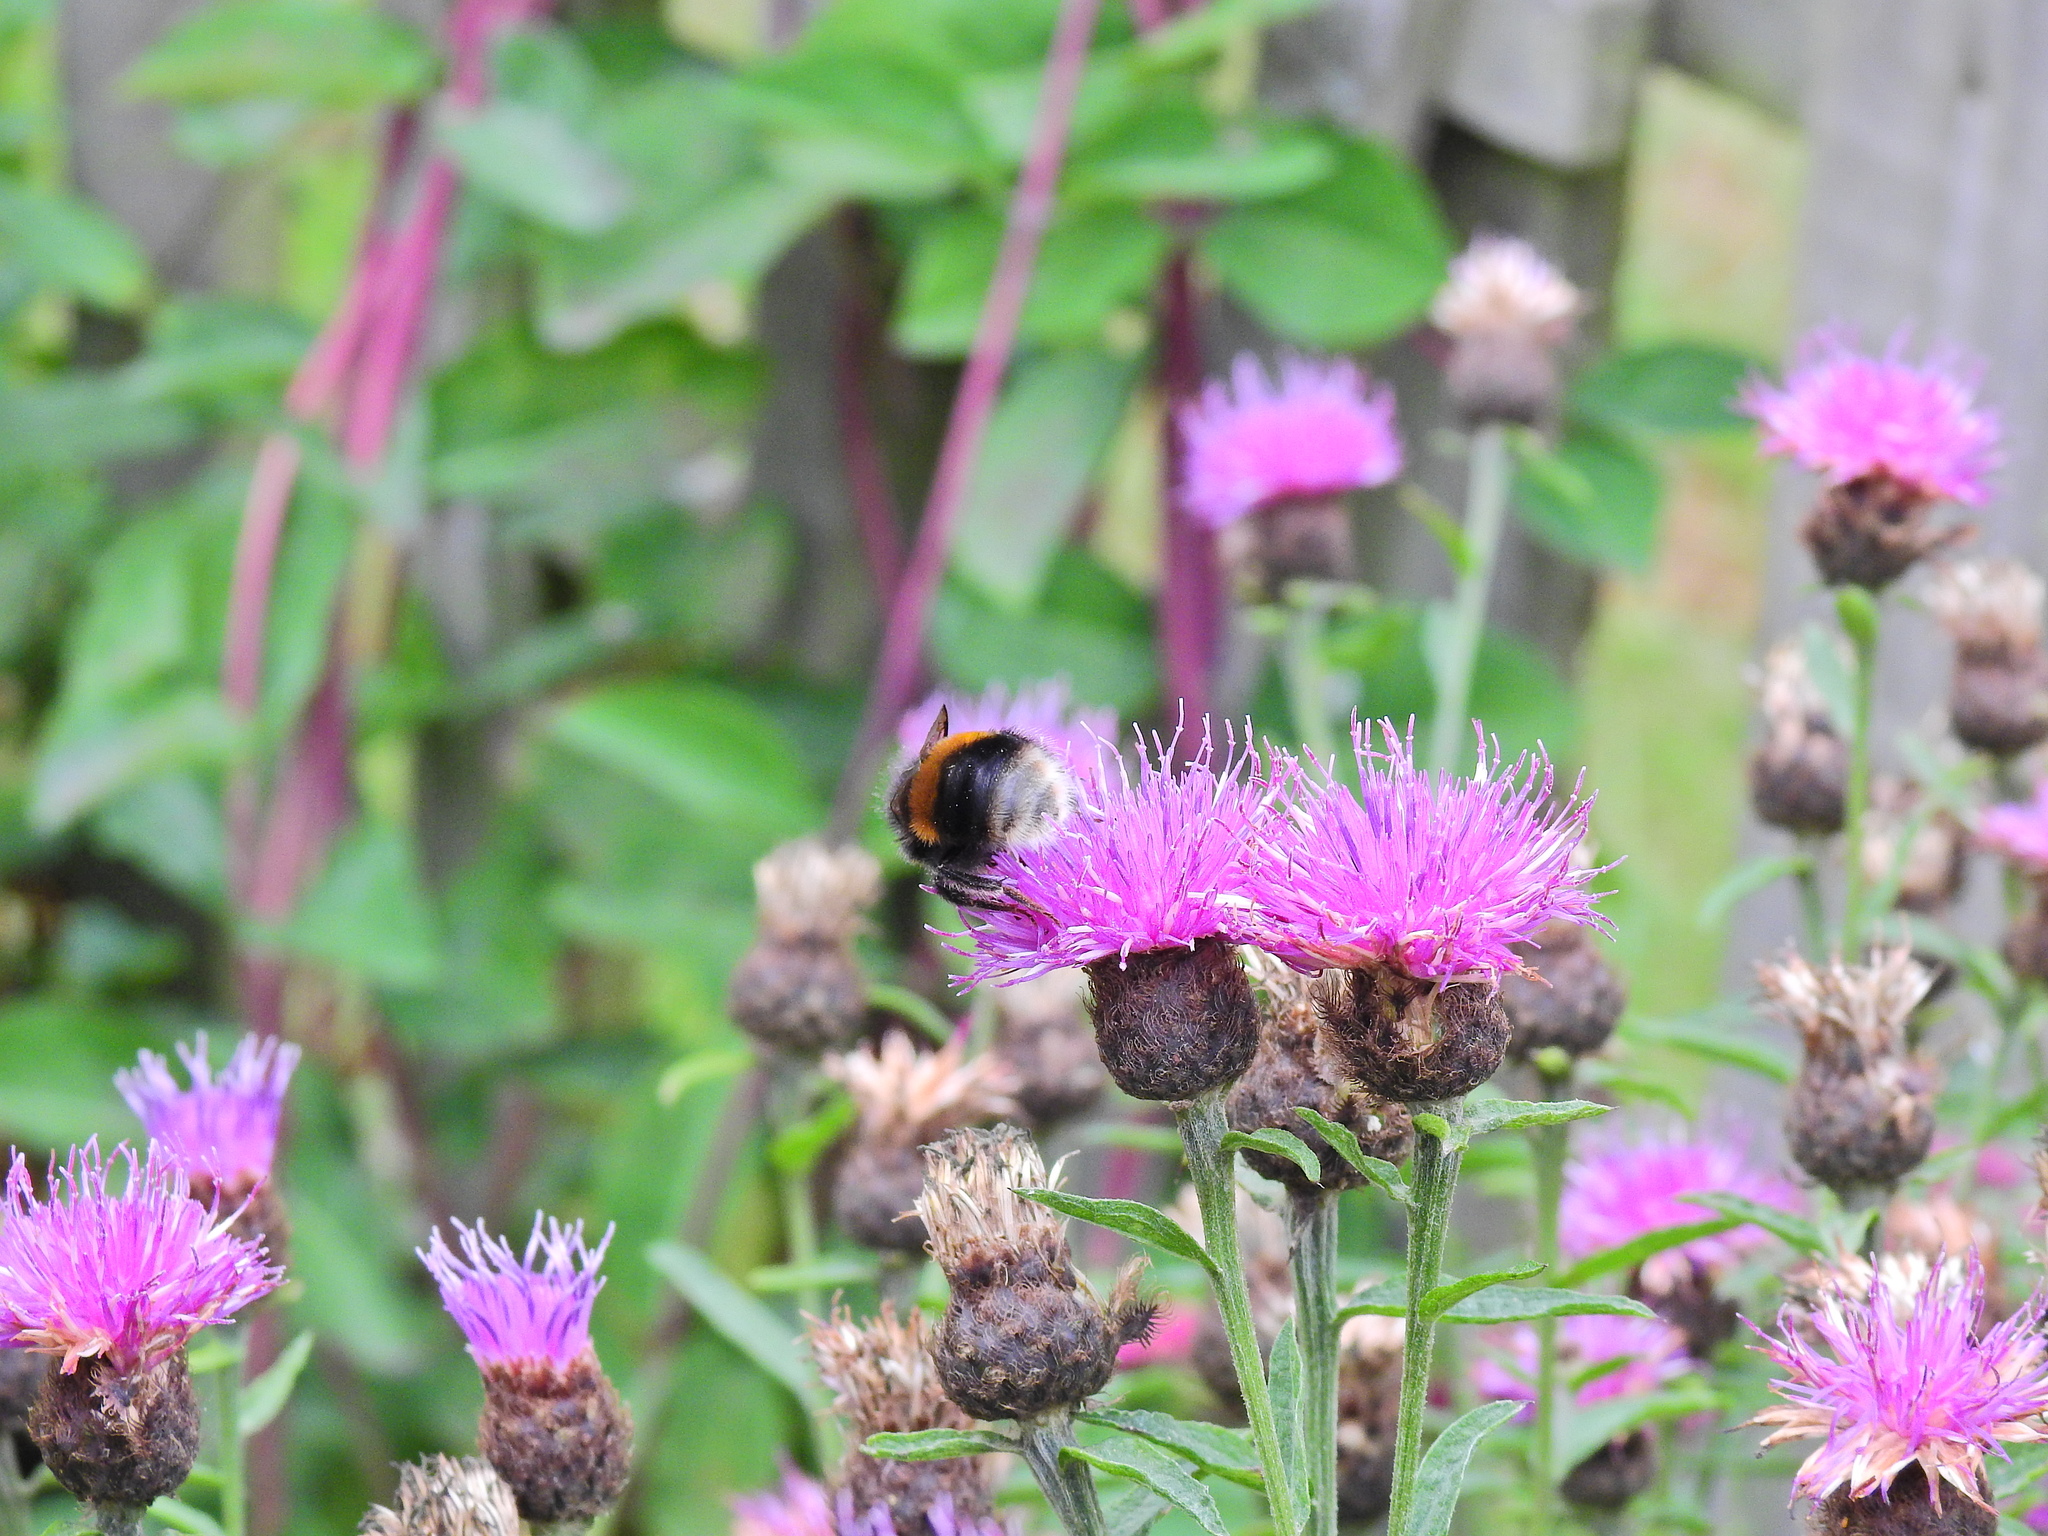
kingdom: Animalia
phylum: Arthropoda
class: Insecta
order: Hymenoptera
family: Apidae
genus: Bombus
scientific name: Bombus hypnorum
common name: New garden bumblebee
